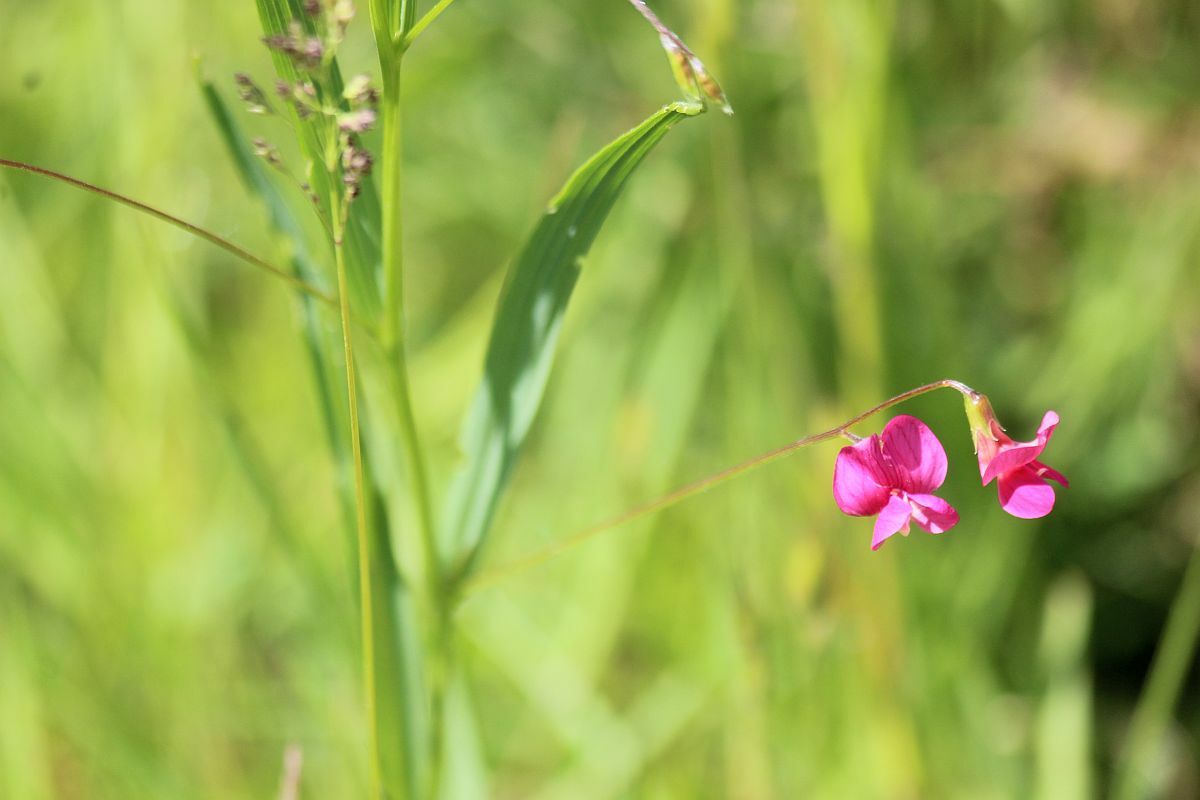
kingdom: Plantae
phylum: Tracheophyta
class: Magnoliopsida
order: Fabales
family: Fabaceae
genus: Lathyrus
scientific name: Lathyrus nissolia
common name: Grass vetchling
